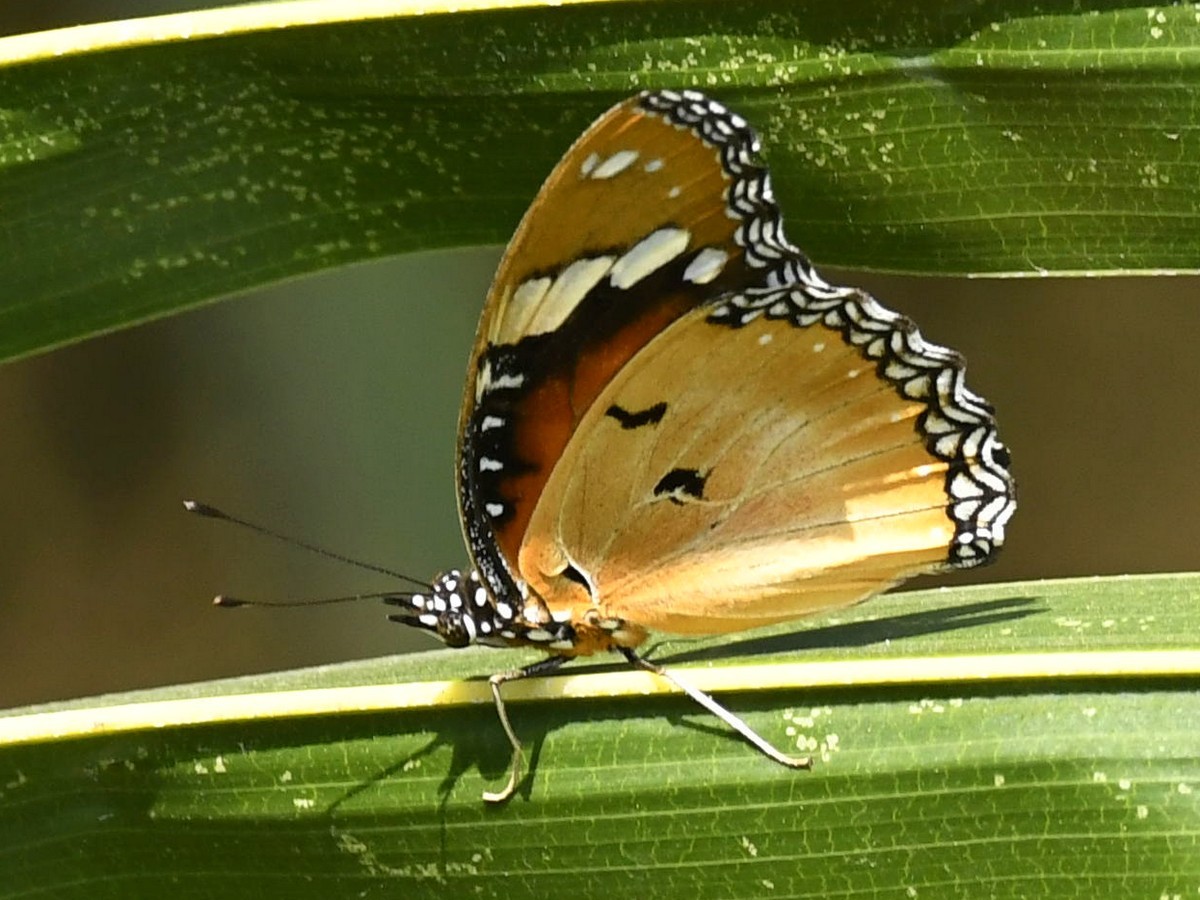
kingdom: Animalia
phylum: Arthropoda
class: Insecta
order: Lepidoptera
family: Nymphalidae
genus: Hypolimnas
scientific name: Hypolimnas misippus
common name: False plain tiger
